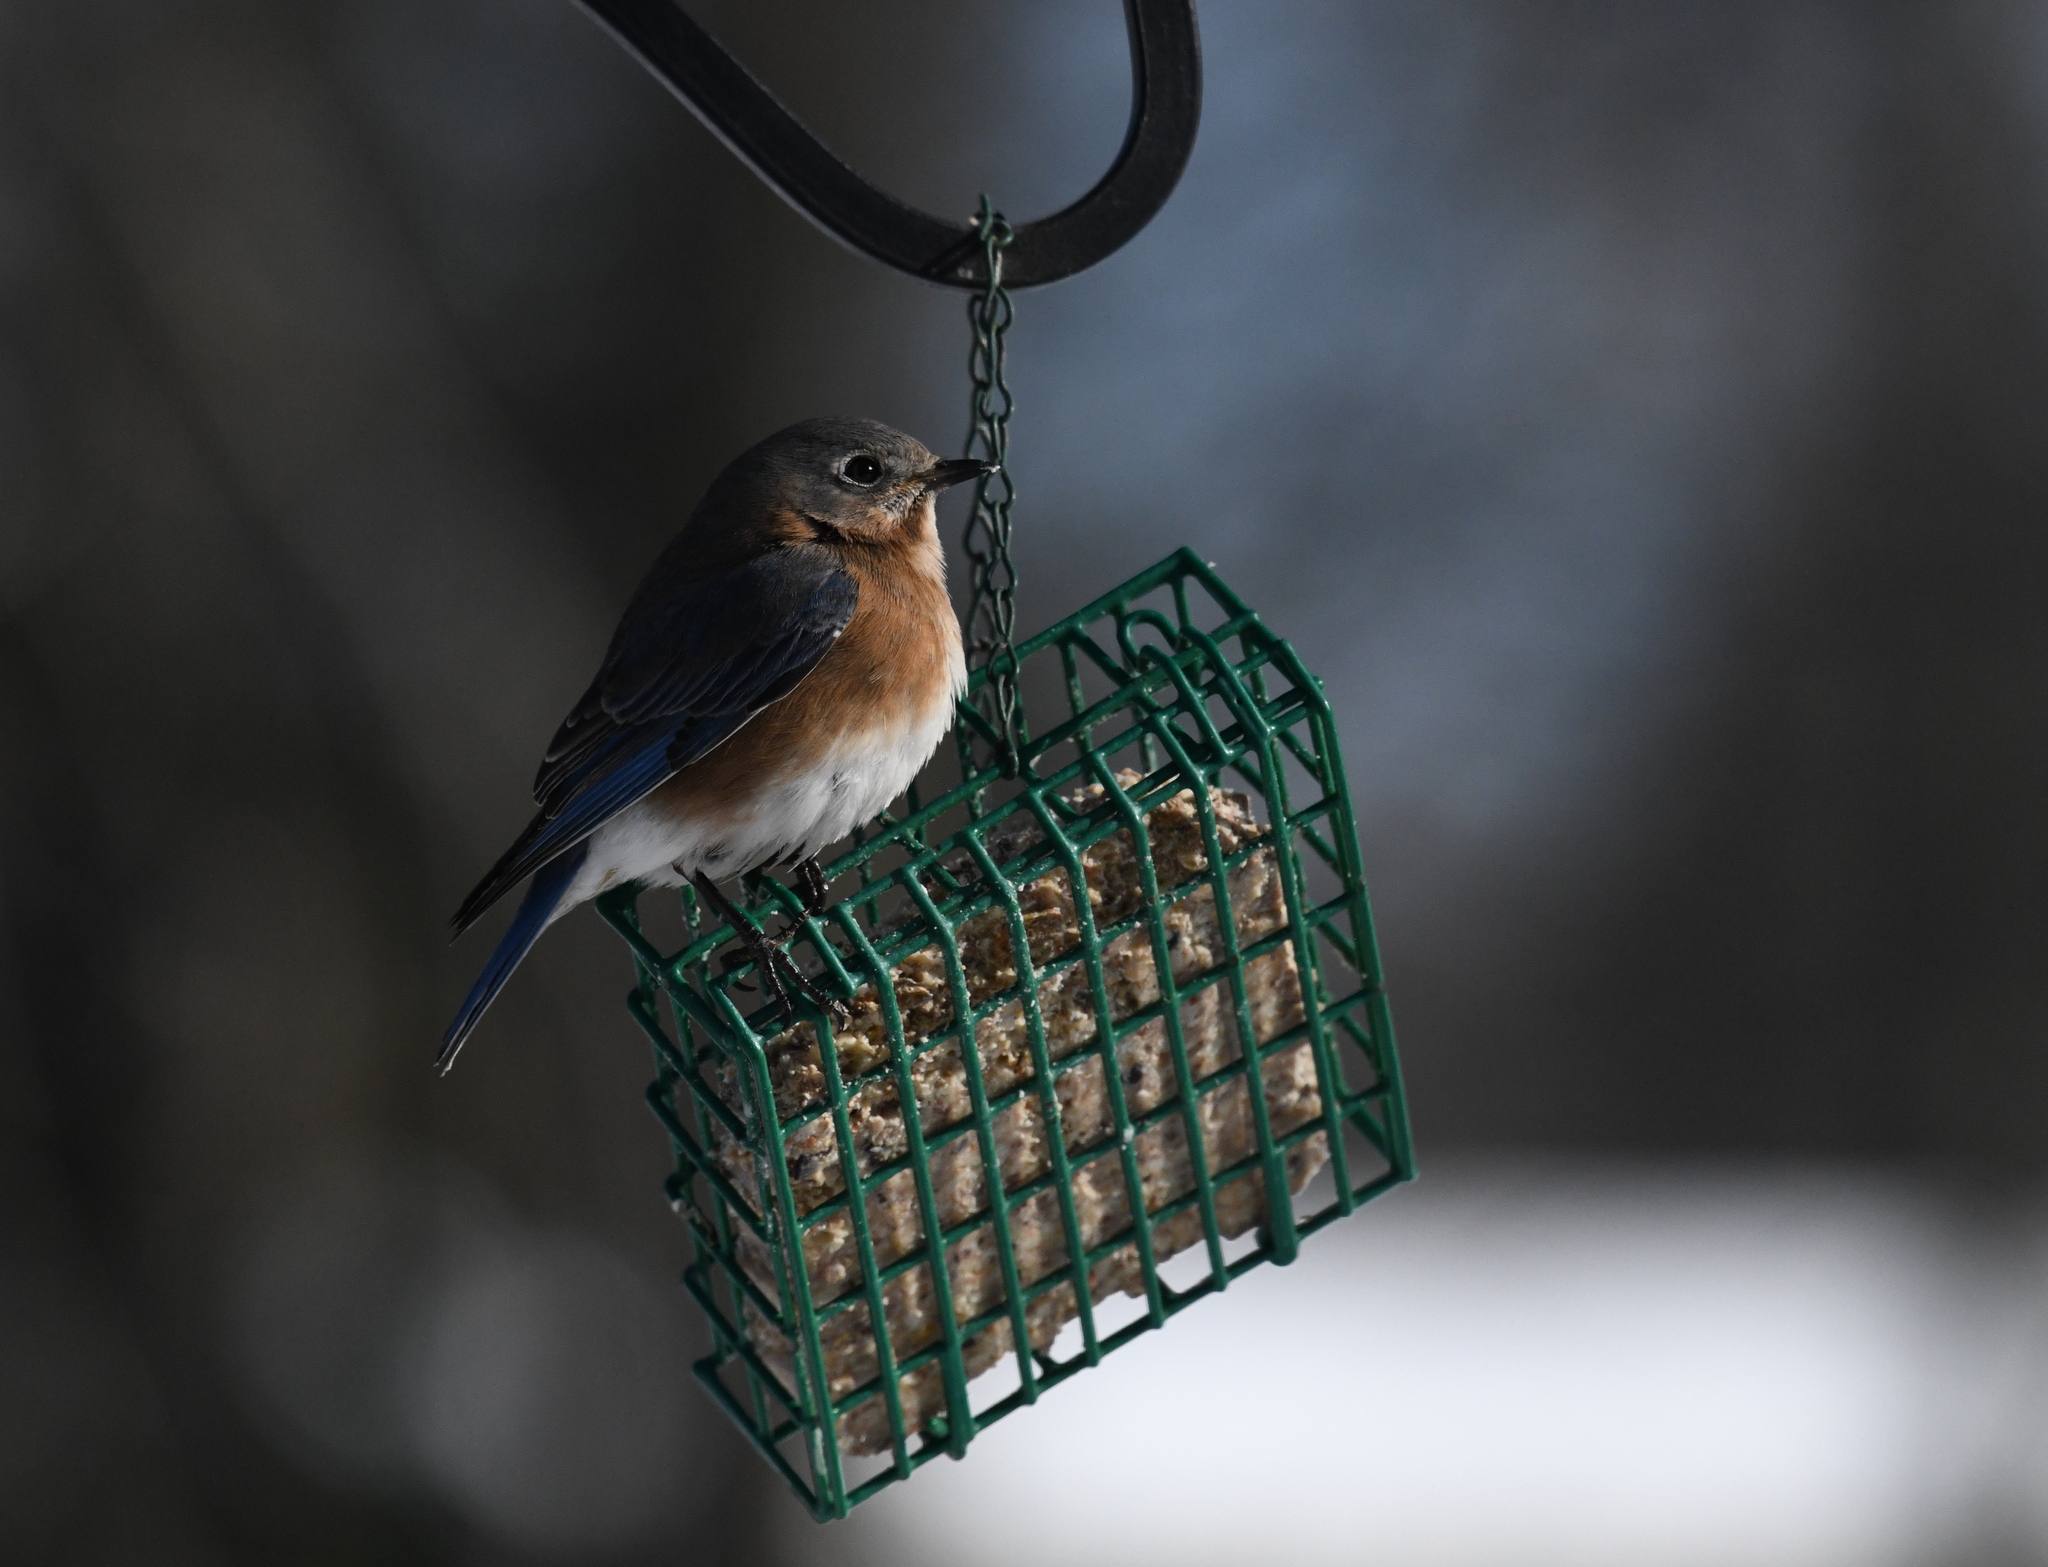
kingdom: Animalia
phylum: Chordata
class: Aves
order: Passeriformes
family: Turdidae
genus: Sialia
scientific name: Sialia sialis
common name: Eastern bluebird
